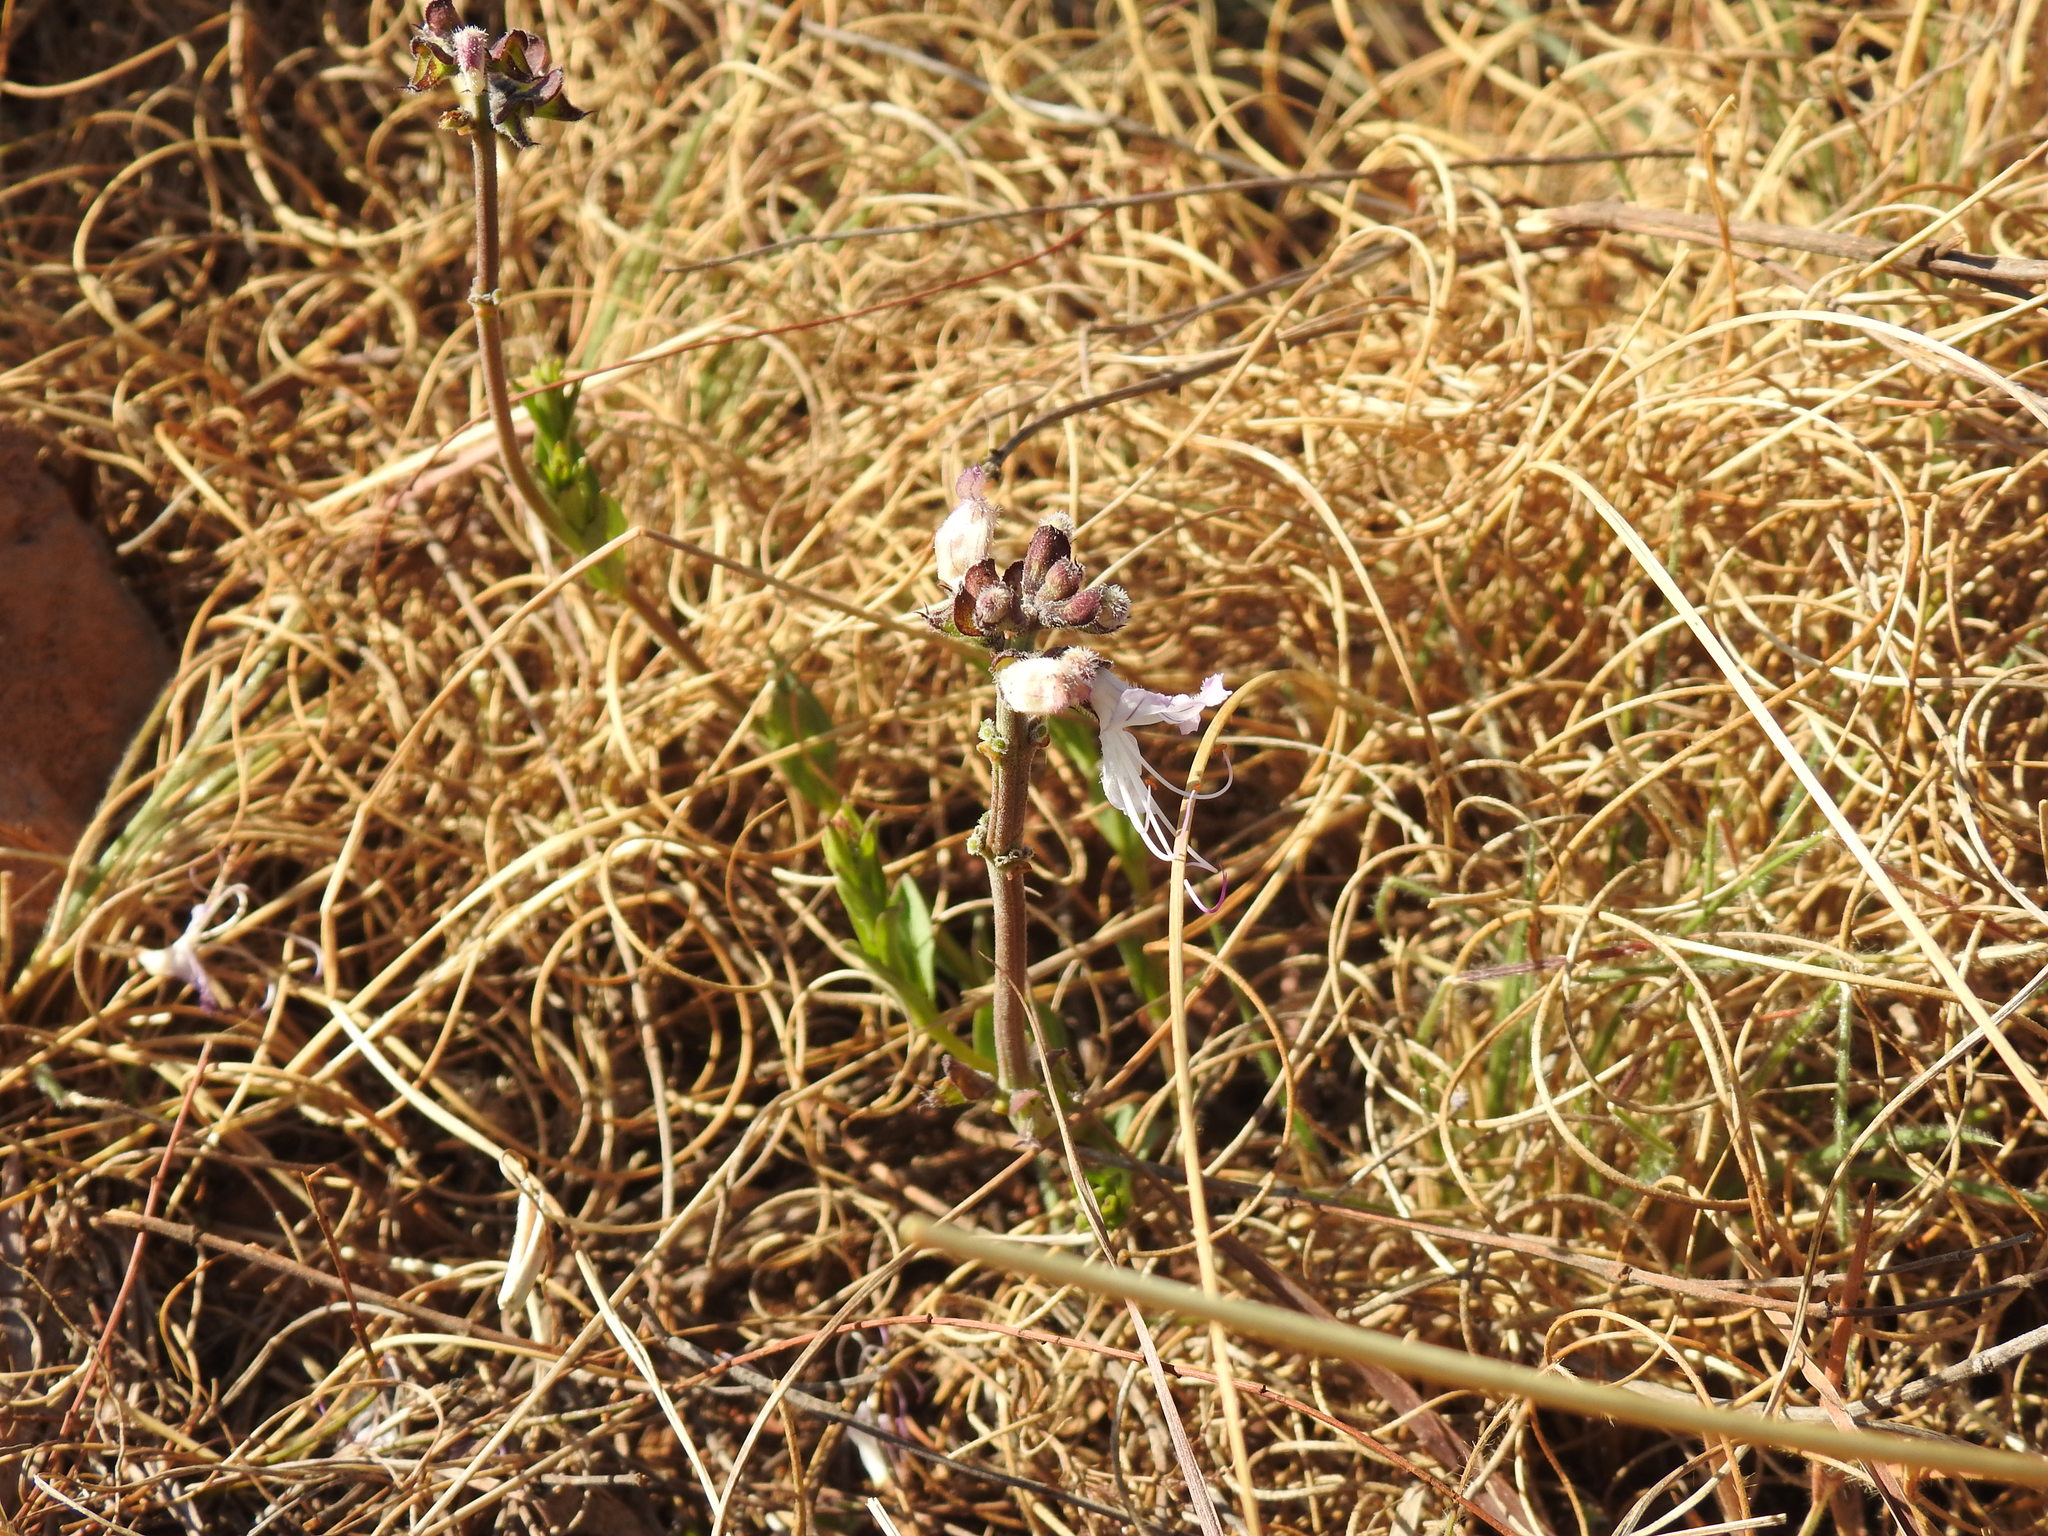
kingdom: Plantae
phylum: Tracheophyta
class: Magnoliopsida
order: Lamiales
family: Lamiaceae
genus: Ocimum
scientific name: Ocimum obovatum
